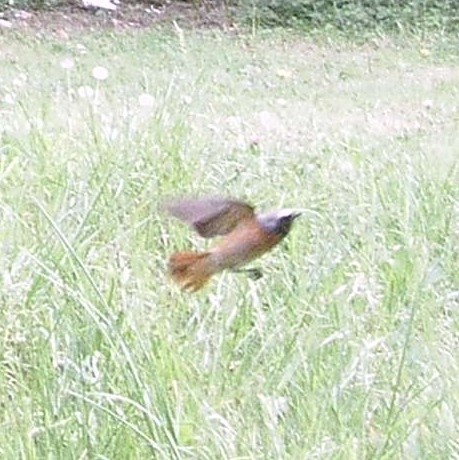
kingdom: Animalia
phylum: Chordata
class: Aves
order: Passeriformes
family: Muscicapidae
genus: Phoenicurus
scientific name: Phoenicurus phoenicurus
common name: Common redstart
